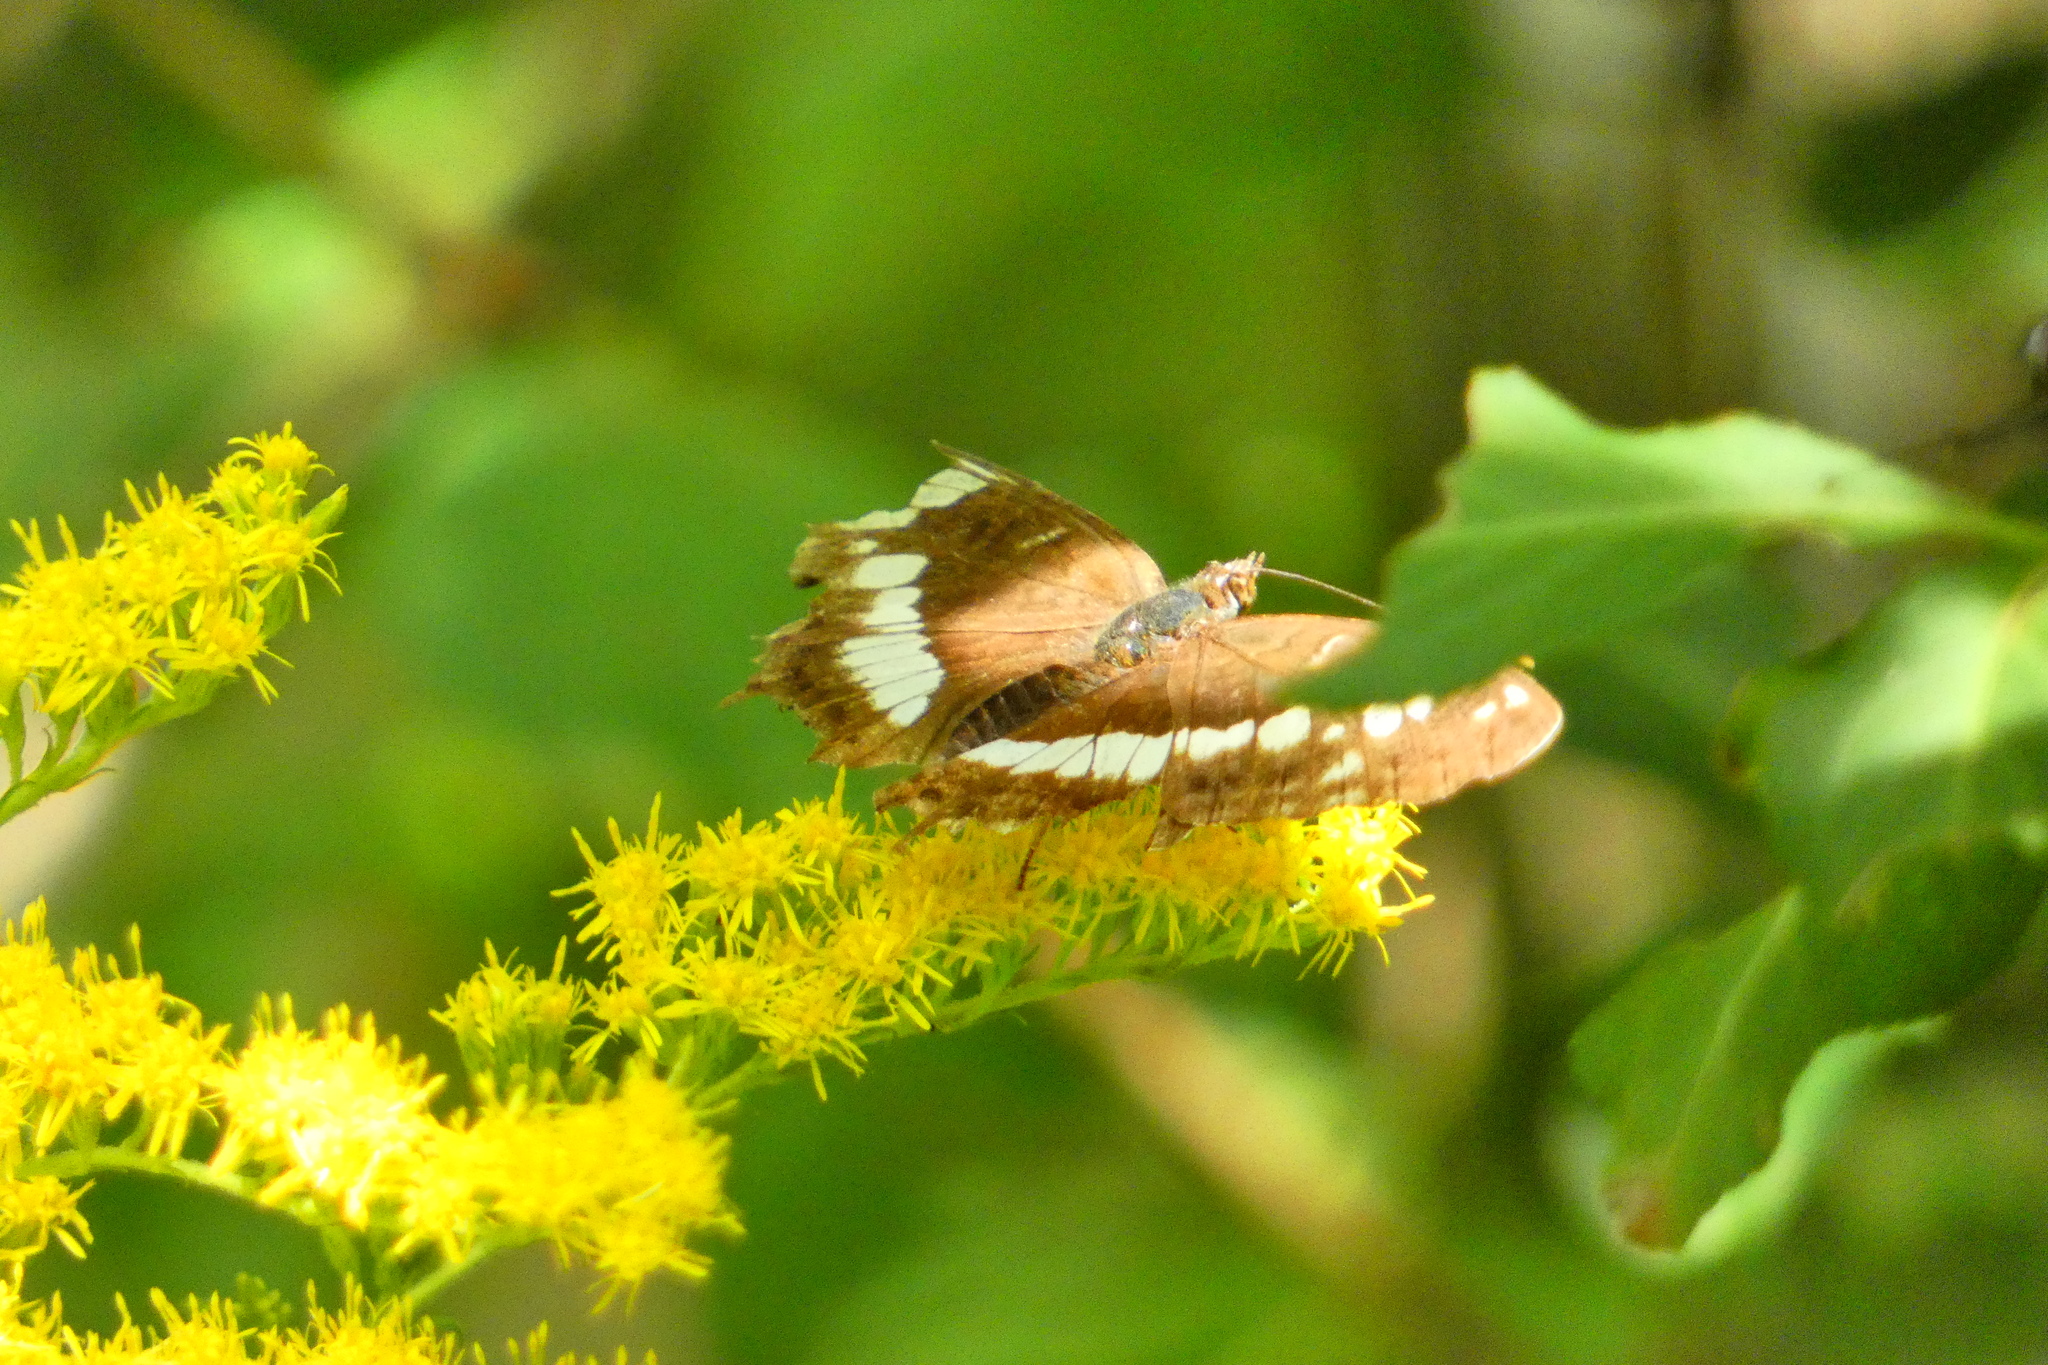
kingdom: Animalia
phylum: Arthropoda
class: Insecta
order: Lepidoptera
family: Nymphalidae
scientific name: Nymphalidae
